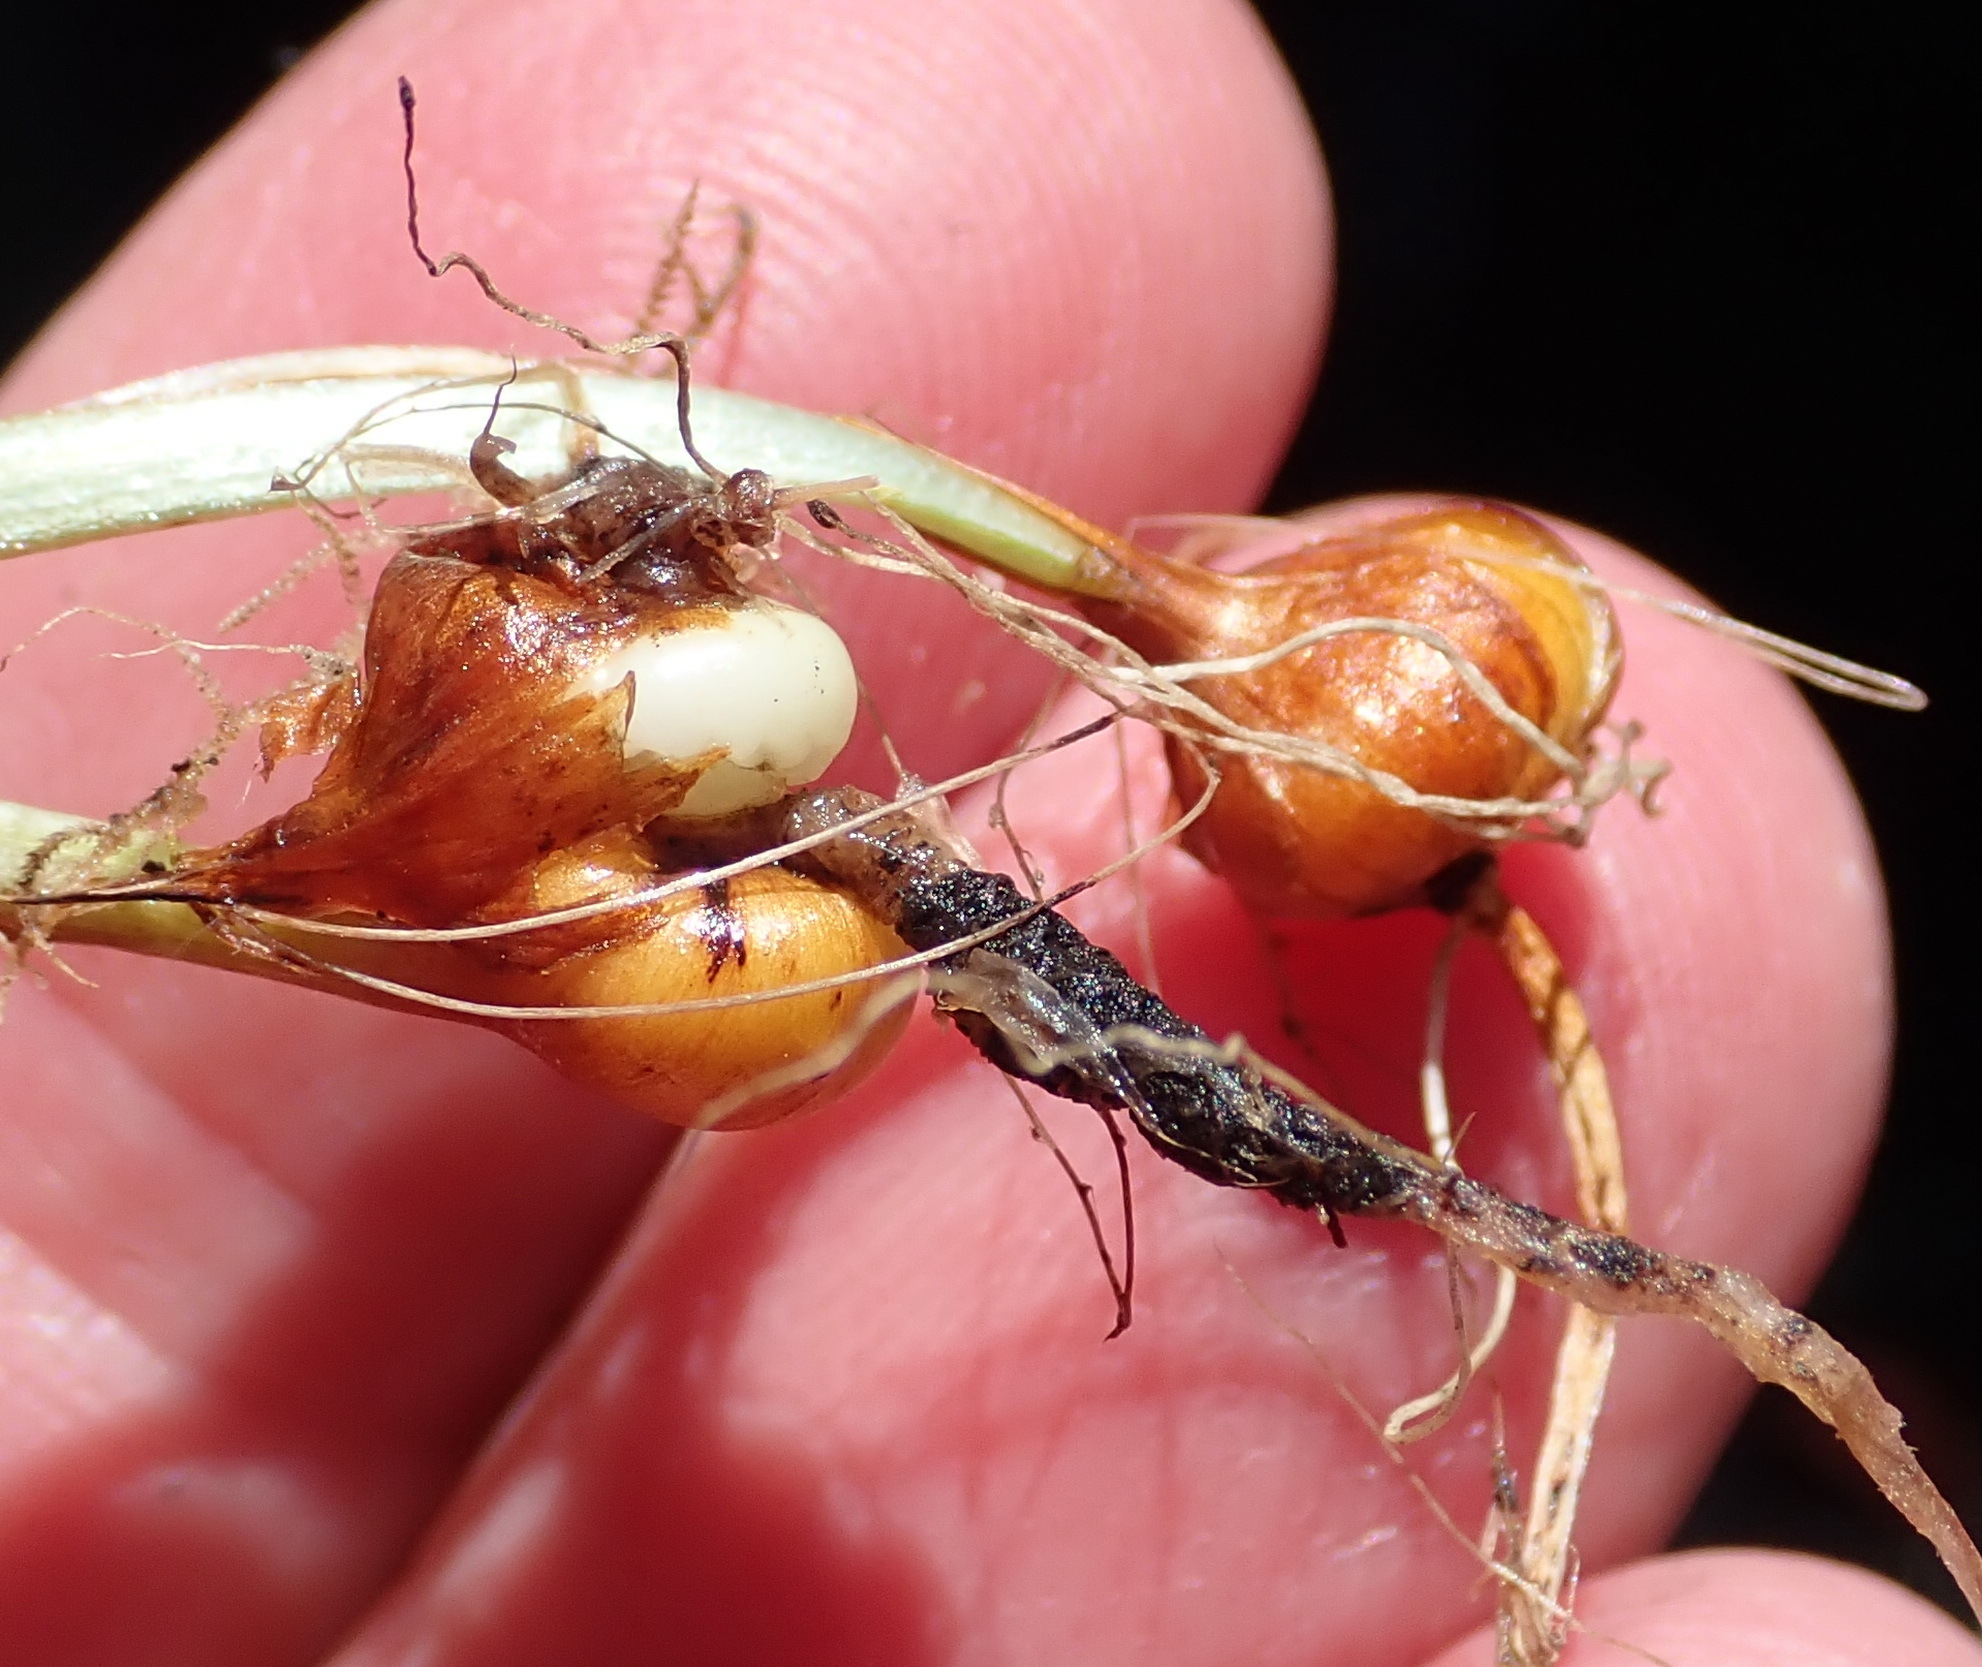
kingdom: Plantae
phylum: Tracheophyta
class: Liliopsida
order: Asparagales
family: Iridaceae
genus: Geissorhiza
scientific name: Geissorhiza outeniquensis
